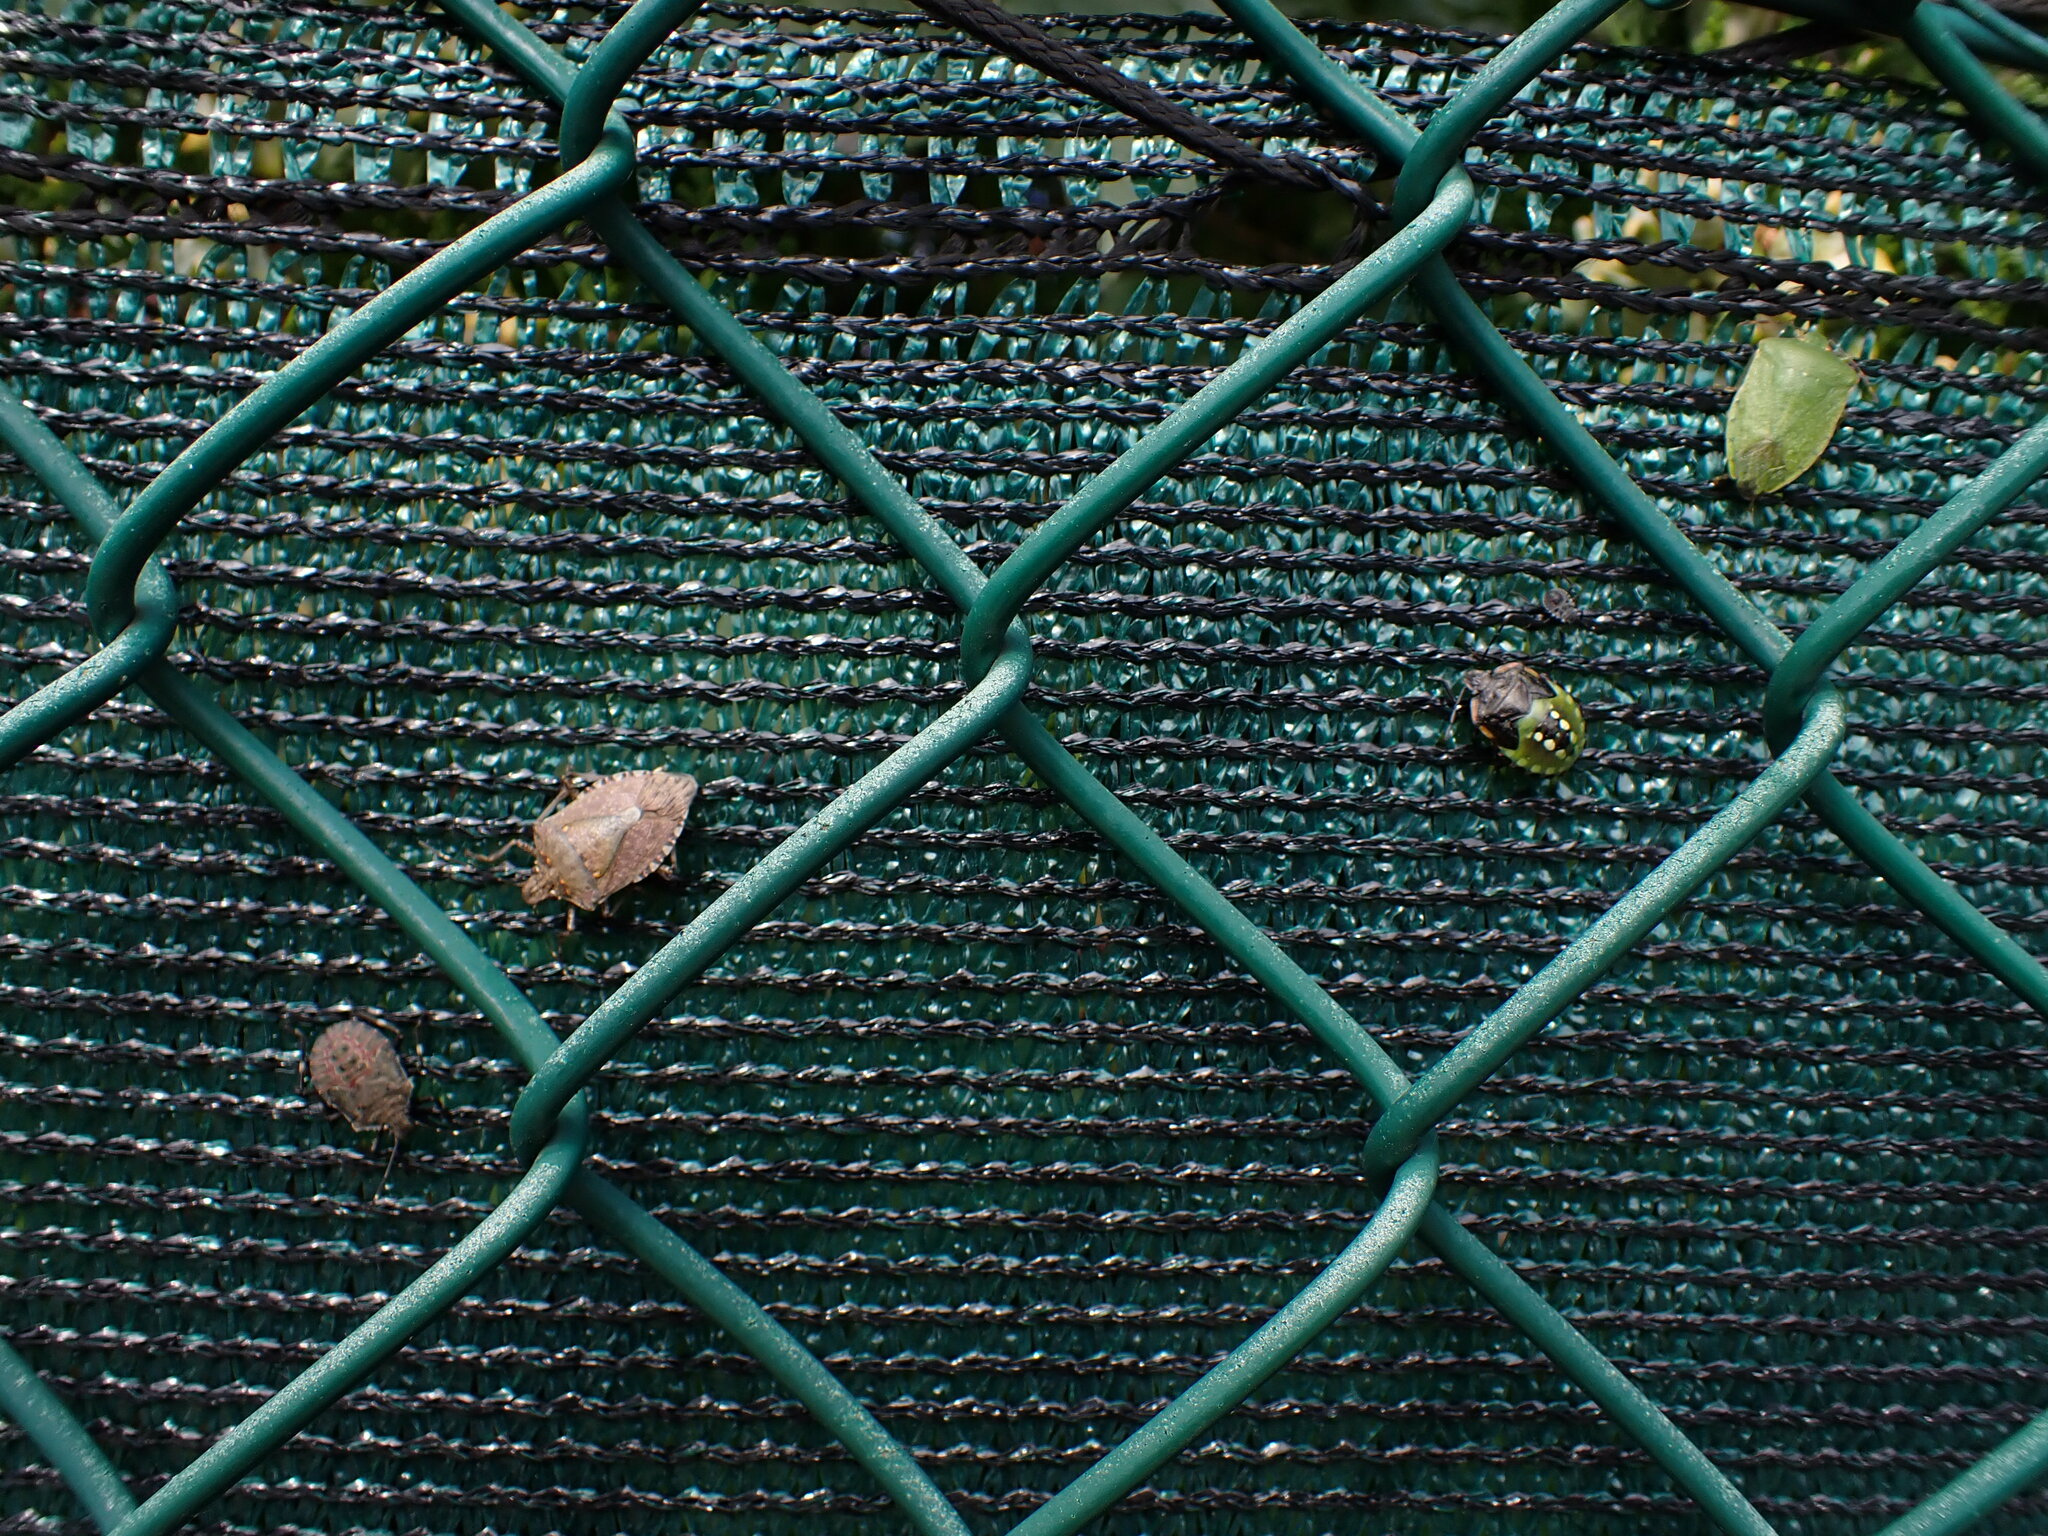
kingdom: Animalia
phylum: Arthropoda
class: Insecta
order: Hemiptera
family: Pentatomidae
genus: Halyomorpha
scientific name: Halyomorpha halys
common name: Brown marmorated stink bug
